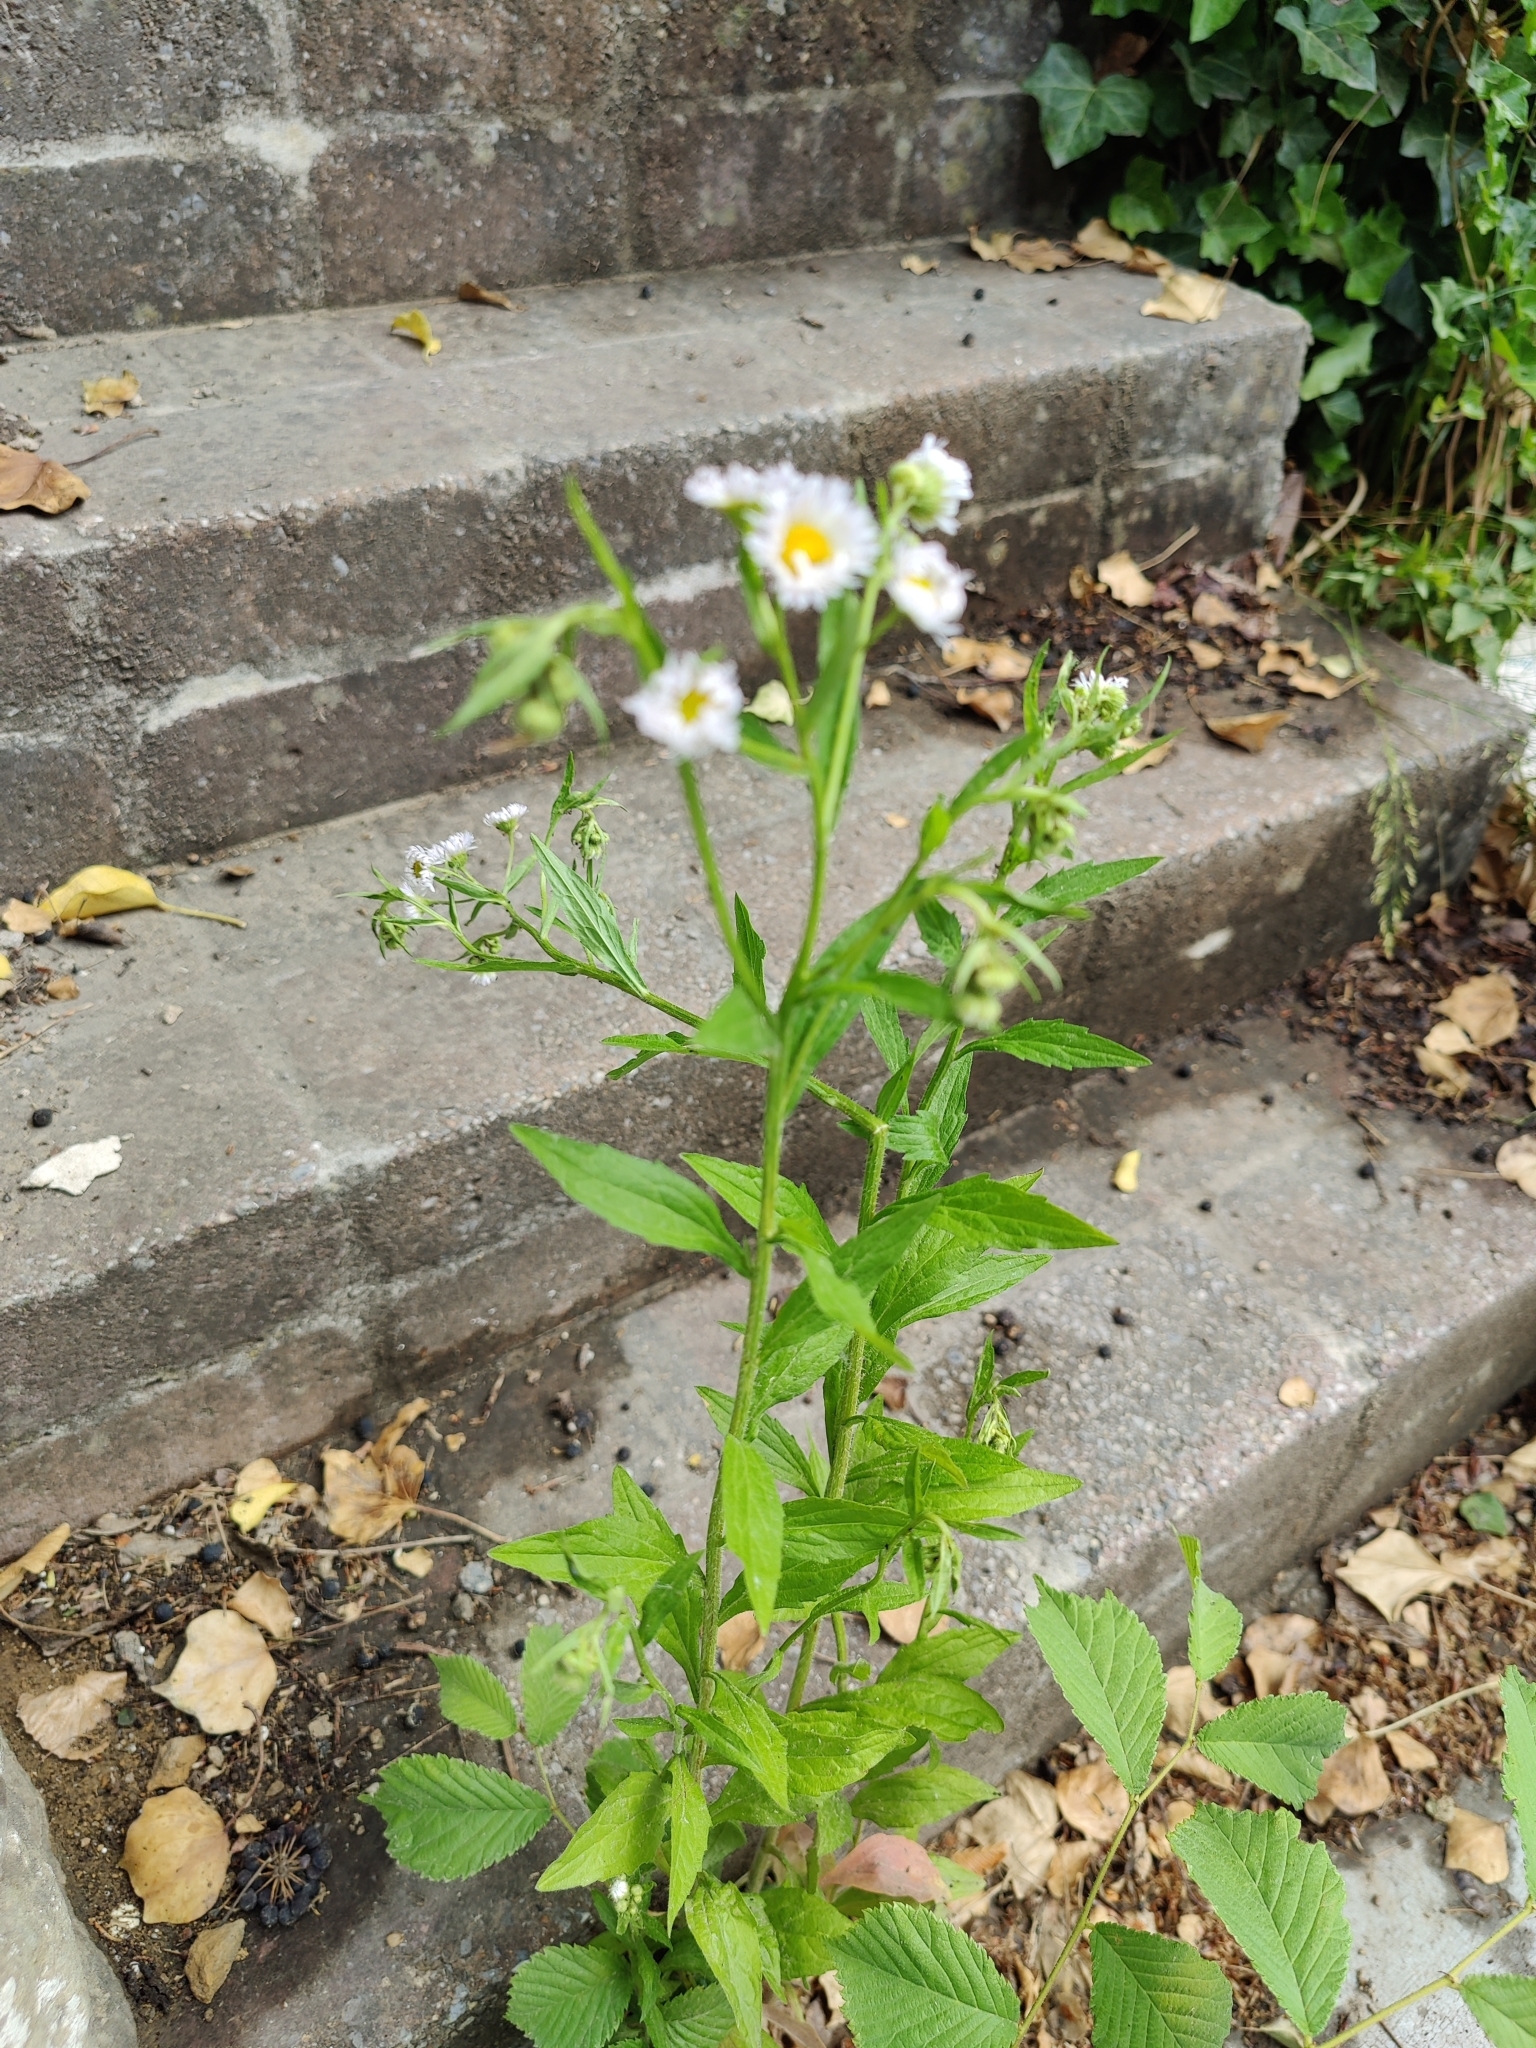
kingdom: Plantae
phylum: Tracheophyta
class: Magnoliopsida
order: Asterales
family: Asteraceae
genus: Erigeron
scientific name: Erigeron annuus
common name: Tall fleabane
